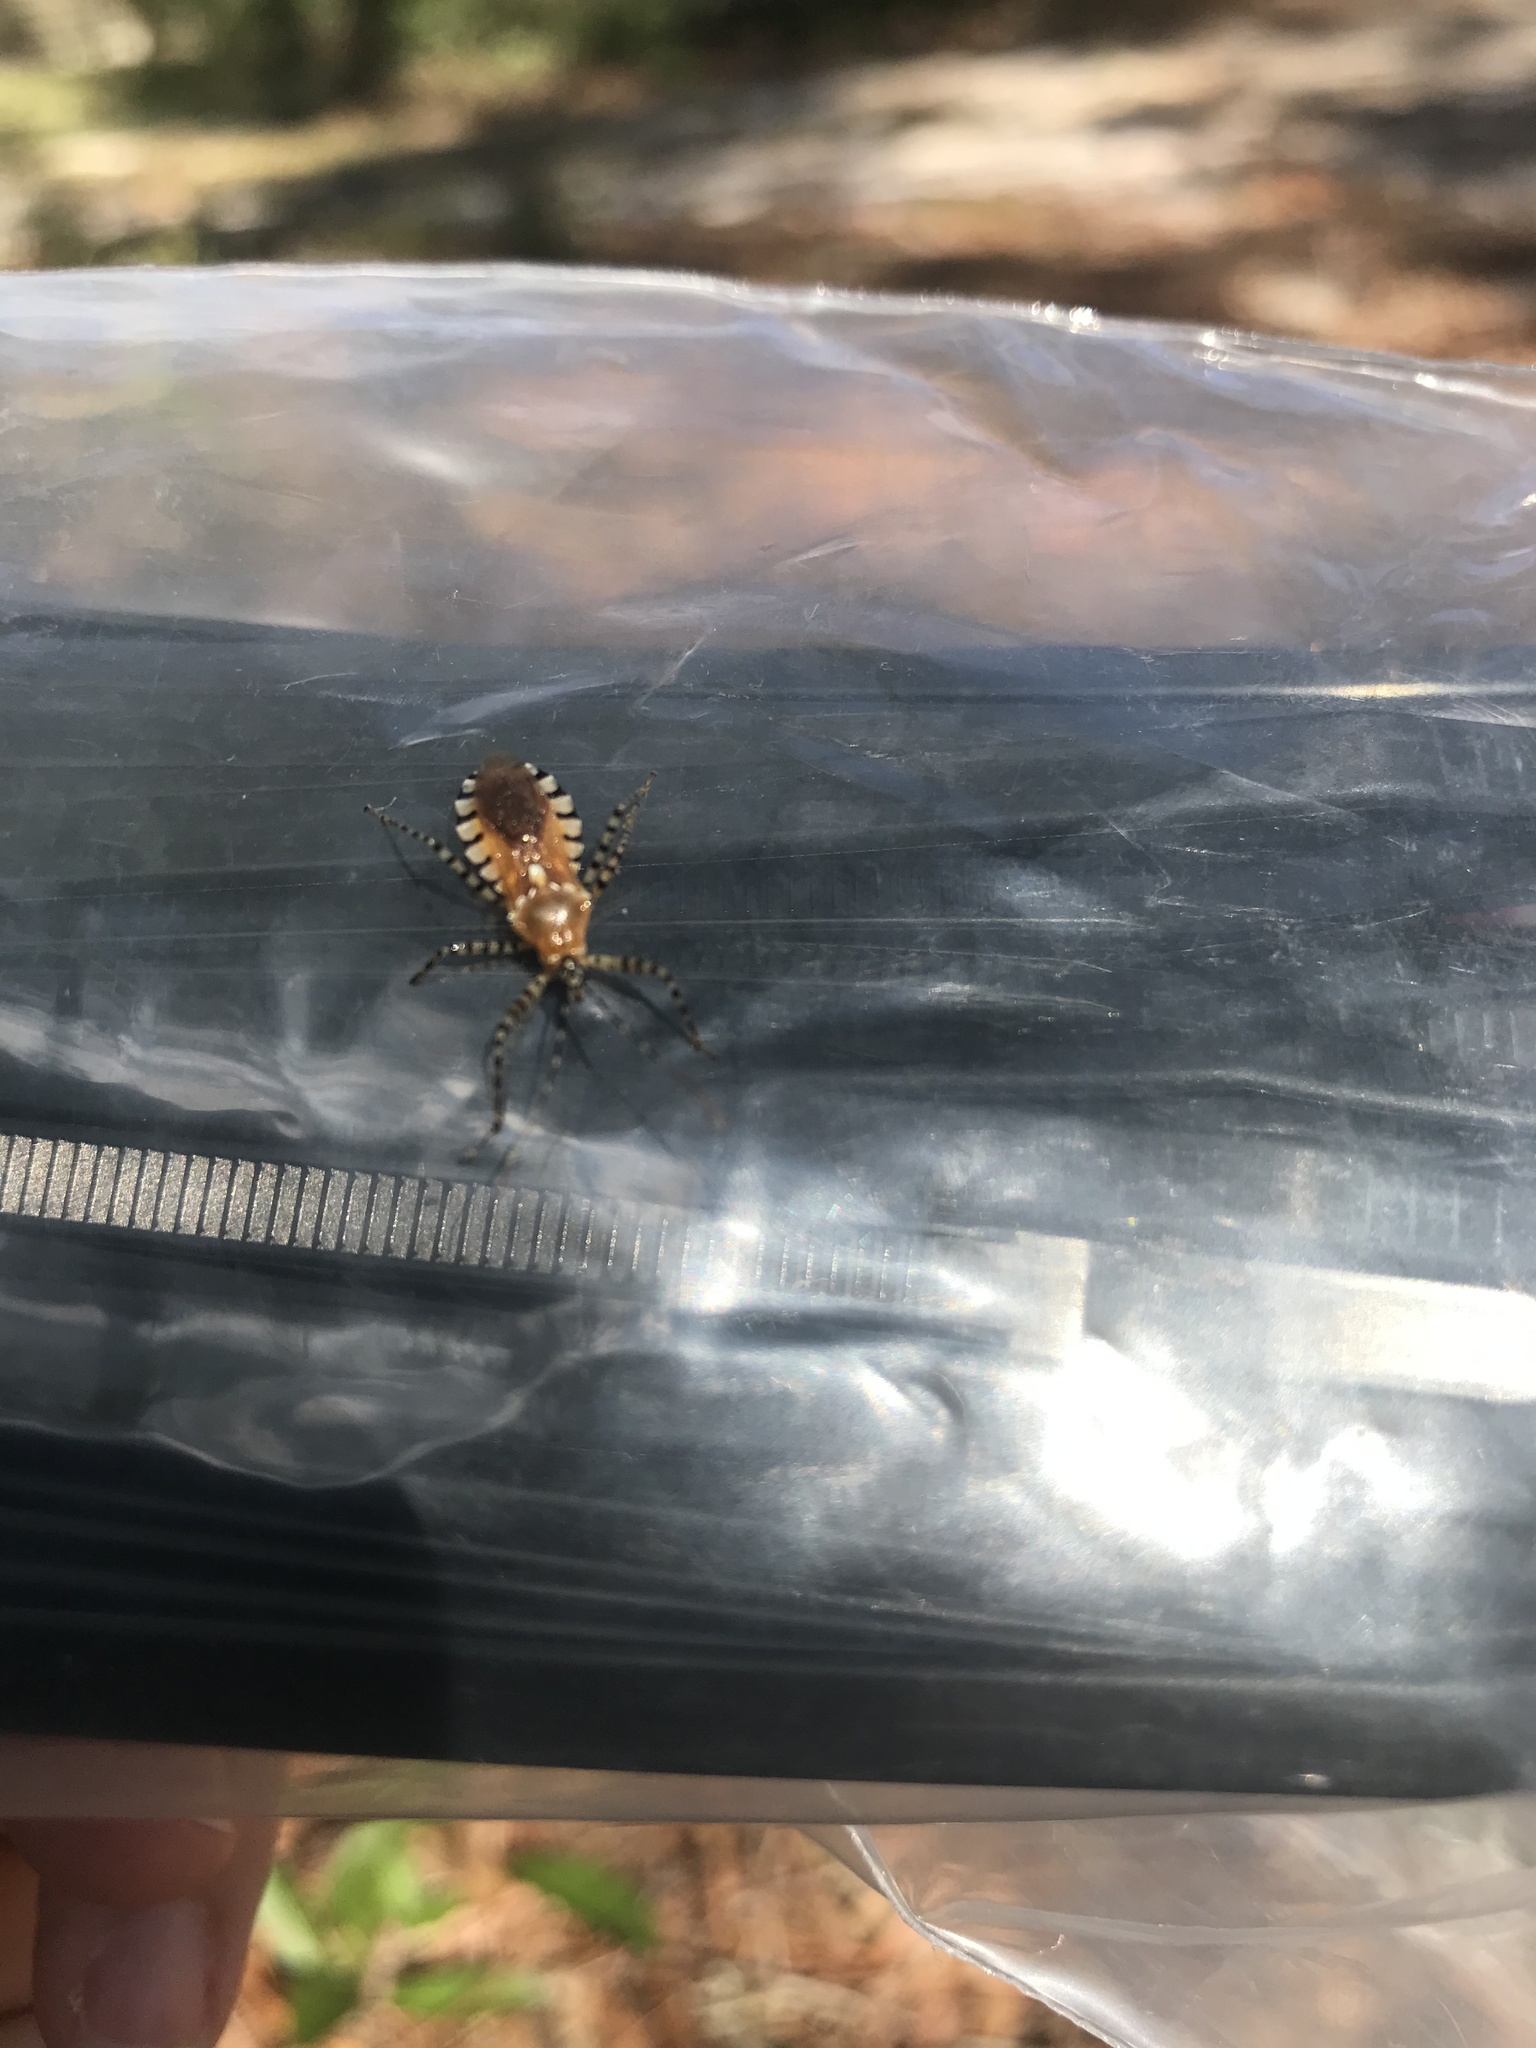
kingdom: Animalia
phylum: Arthropoda
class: Insecta
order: Hemiptera
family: Reduviidae
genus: Pselliopus
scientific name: Pselliopus cinctus
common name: Ringed assassin bug
